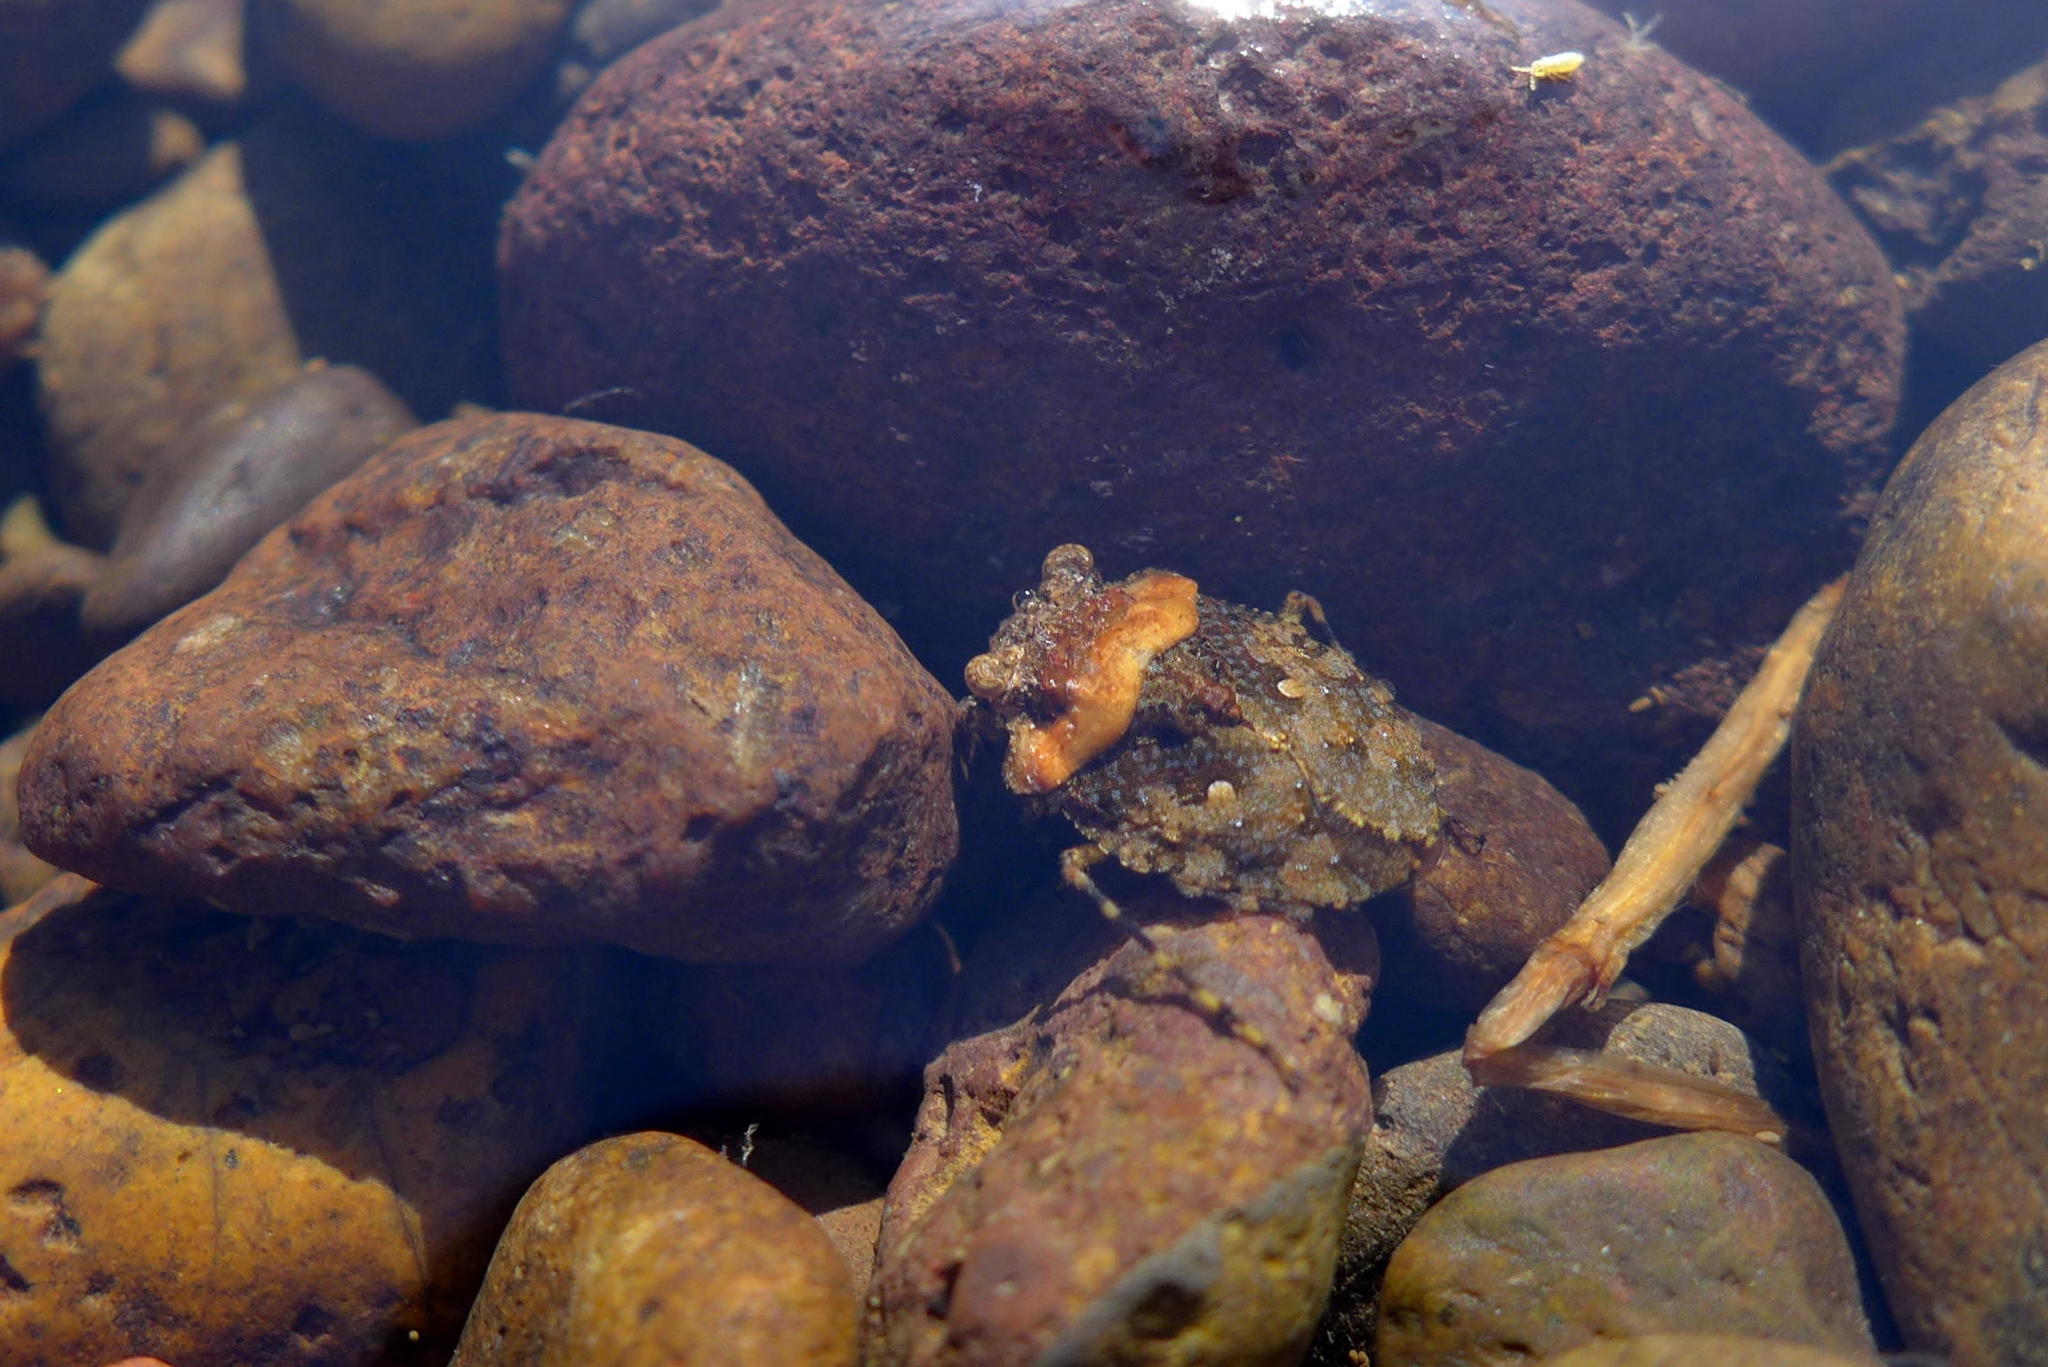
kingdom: Animalia
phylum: Arthropoda
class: Insecta
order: Hemiptera
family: Gelastocoridae
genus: Gelastocoris
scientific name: Gelastocoris oculatus
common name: Toad bug
